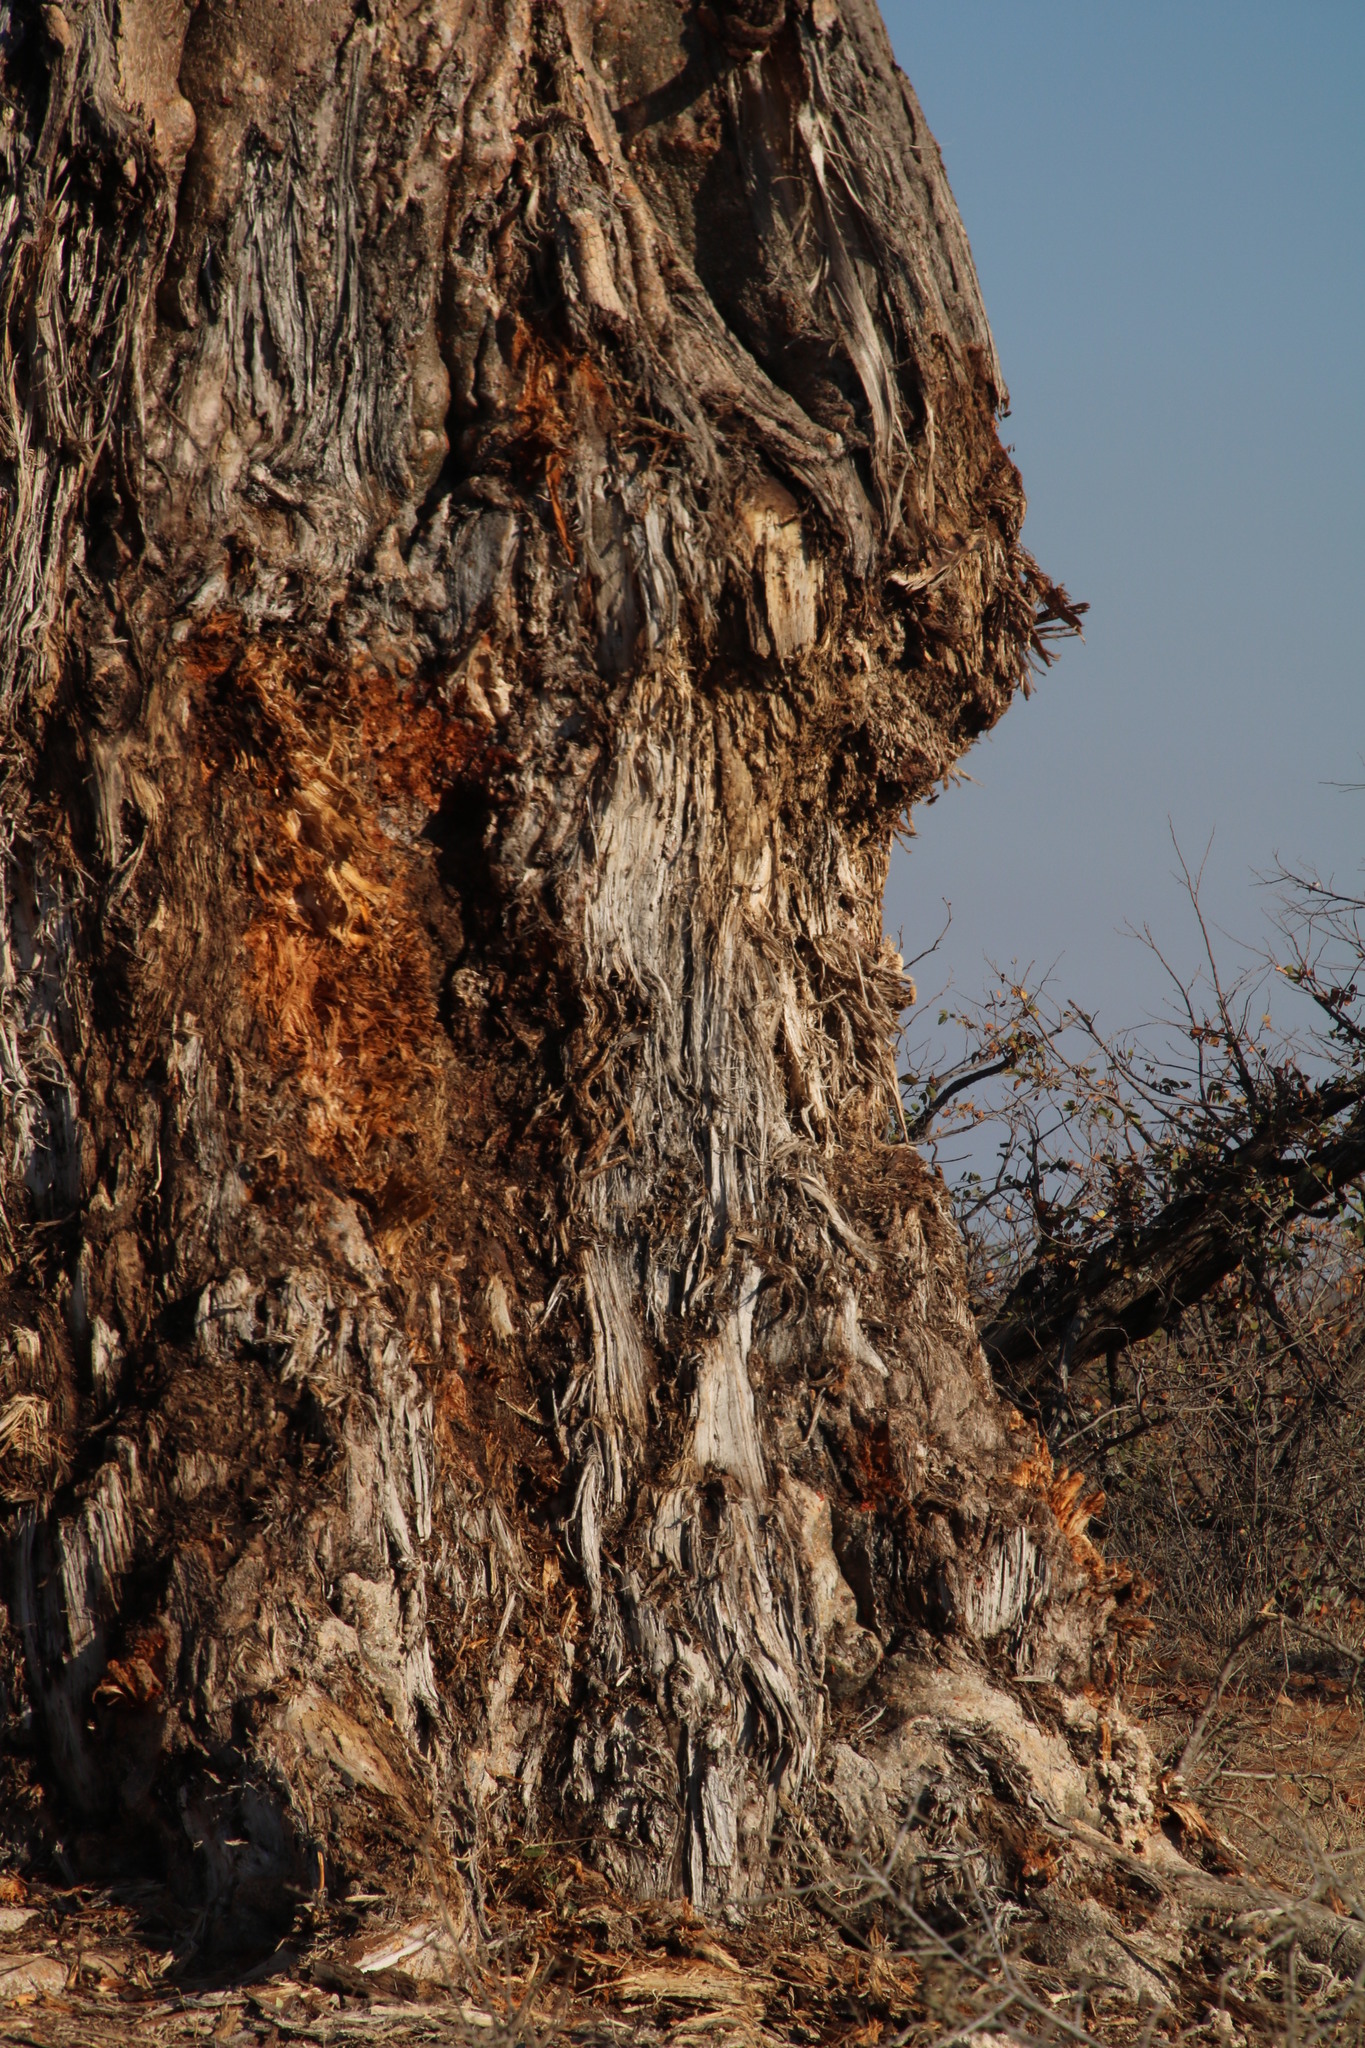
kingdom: Plantae
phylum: Tracheophyta
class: Magnoliopsida
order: Malvales
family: Malvaceae
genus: Adansonia
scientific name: Adansonia digitata
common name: Dead-rat-tree
